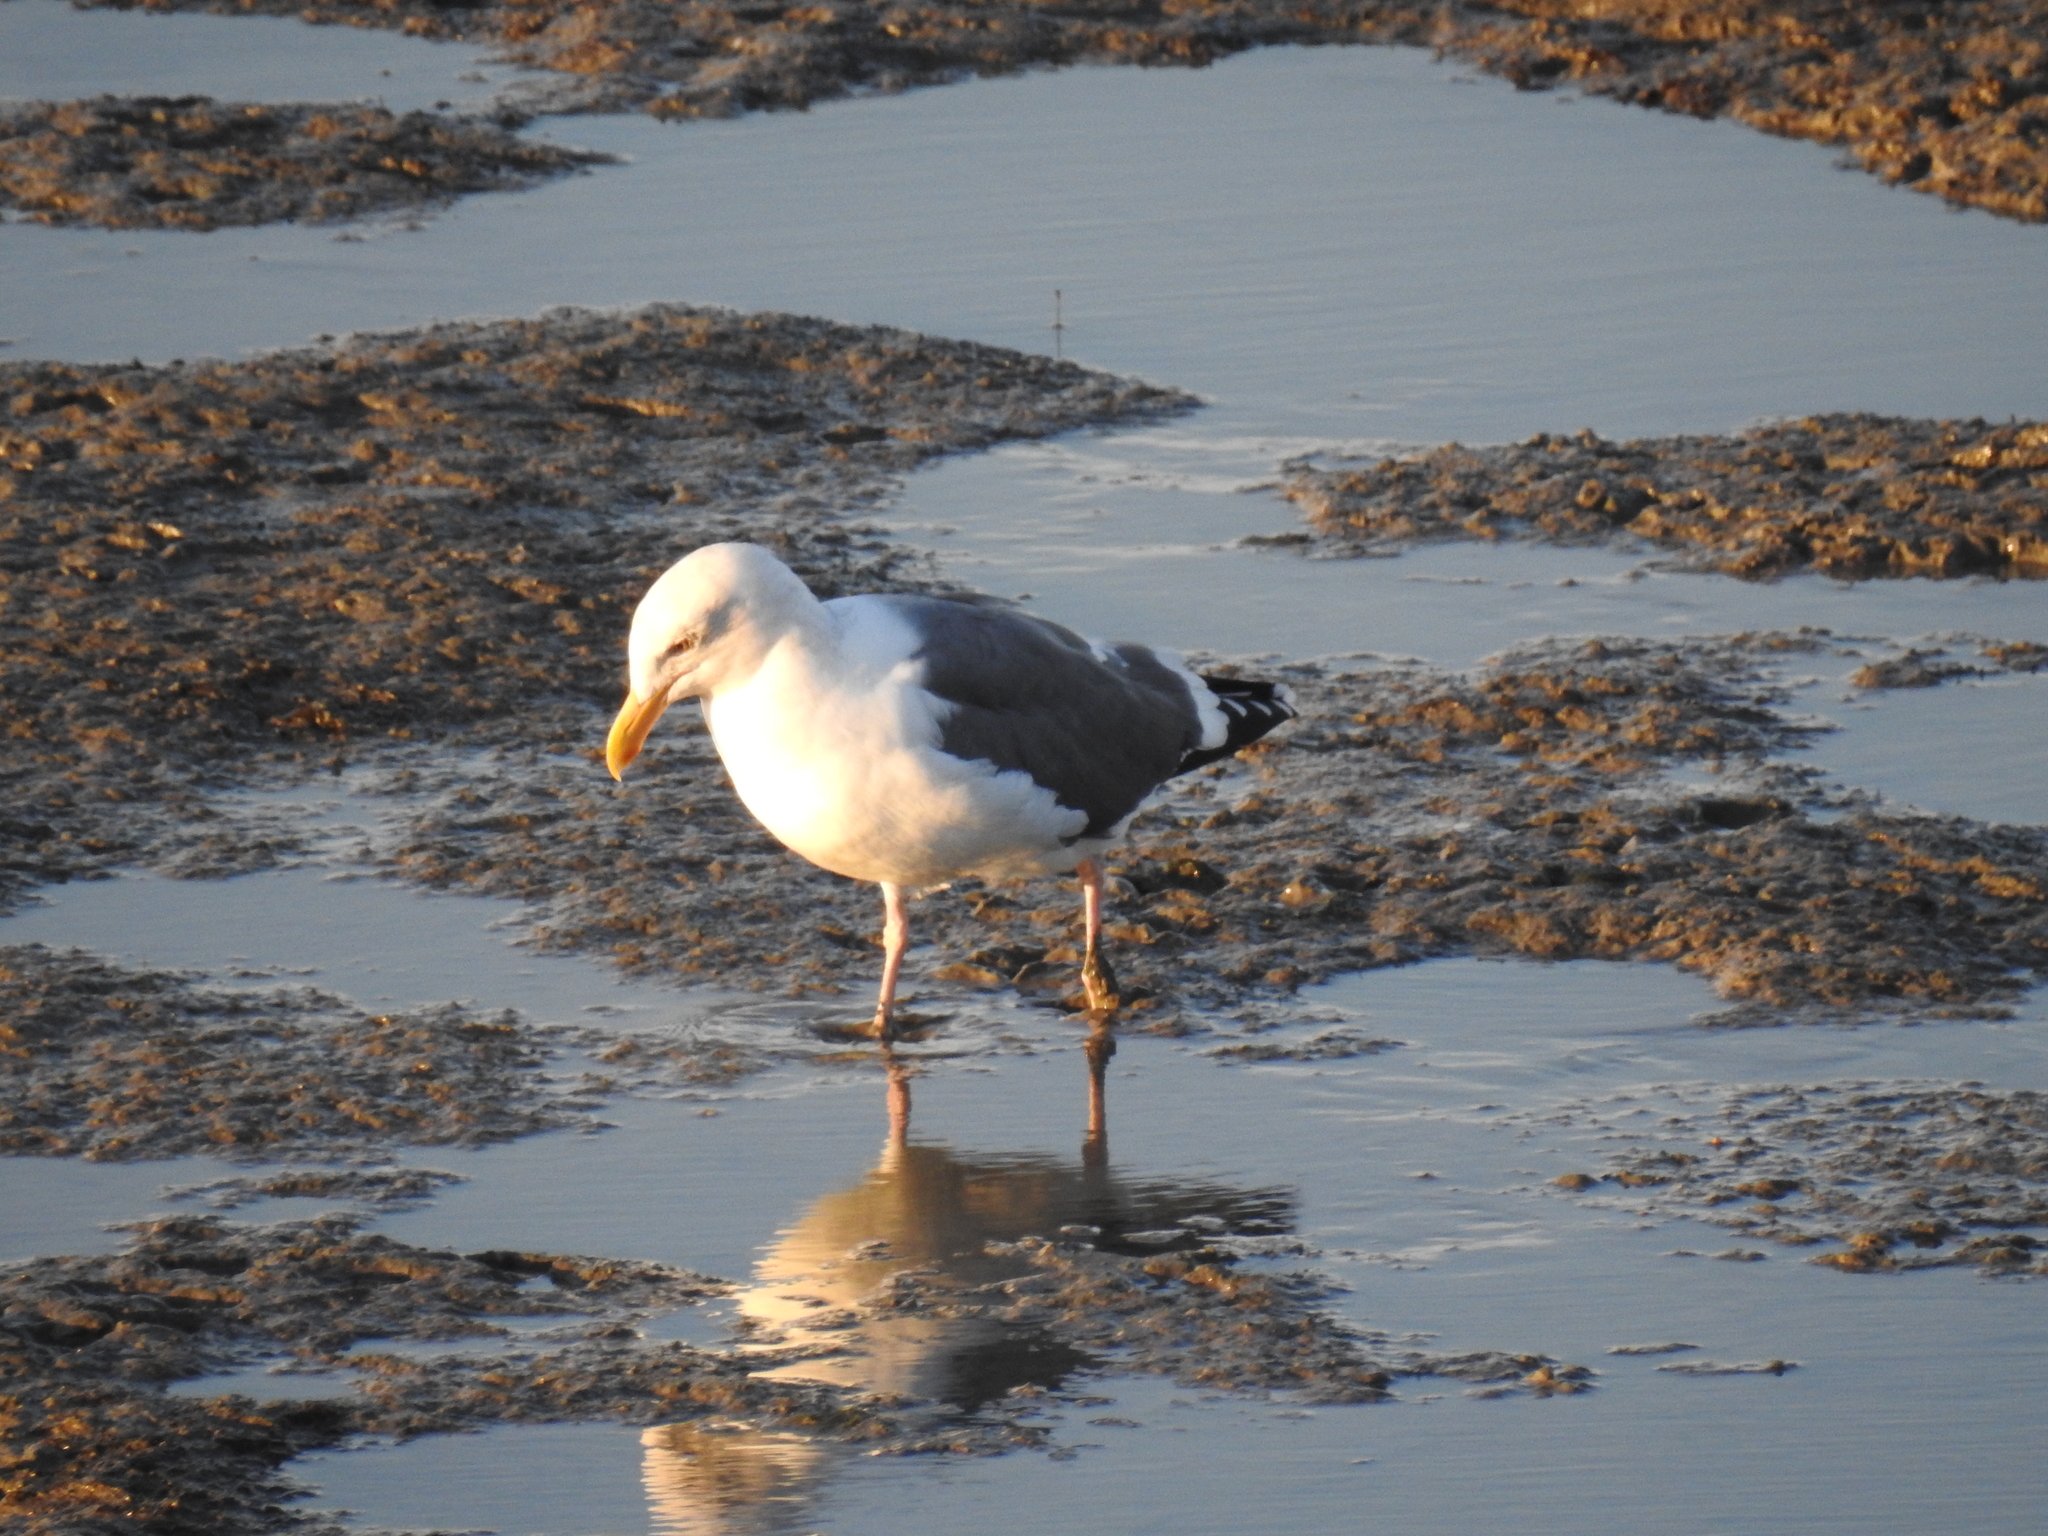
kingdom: Animalia
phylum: Chordata
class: Aves
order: Charadriiformes
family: Laridae
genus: Larus
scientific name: Larus occidentalis
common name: Western gull
